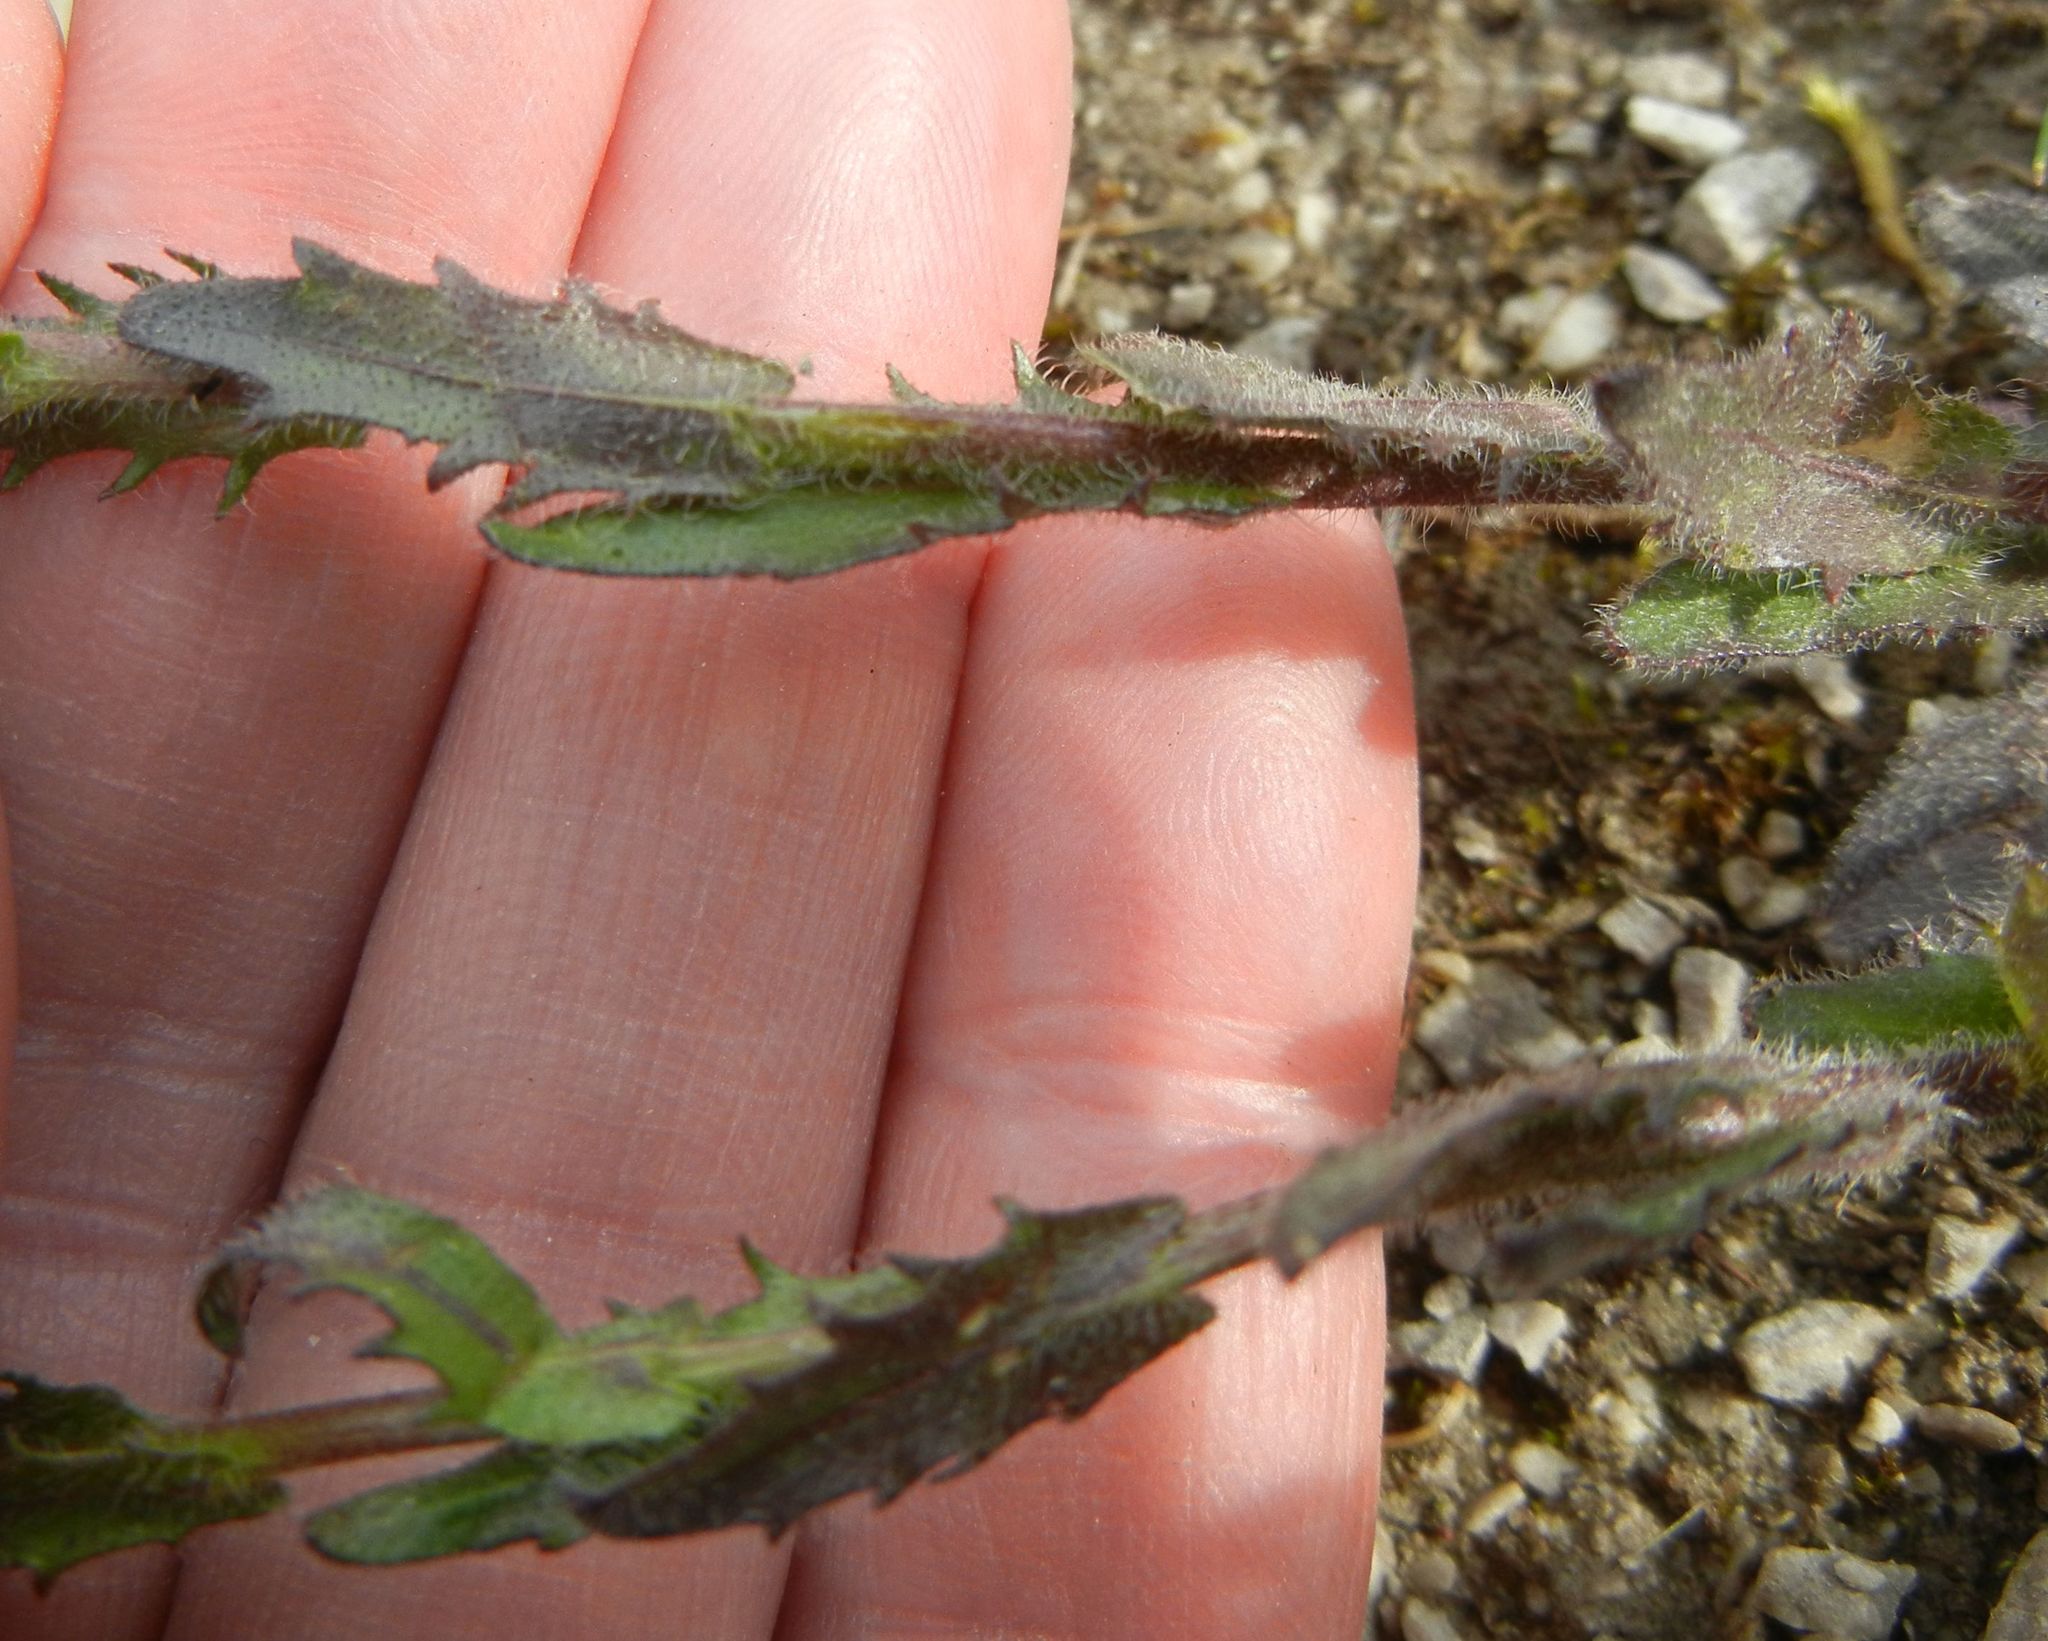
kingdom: Plantae
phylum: Tracheophyta
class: Magnoliopsida
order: Brassicales
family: Brassicaceae
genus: Arabis
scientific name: Arabis hirsuta
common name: Hairy rock-cress
